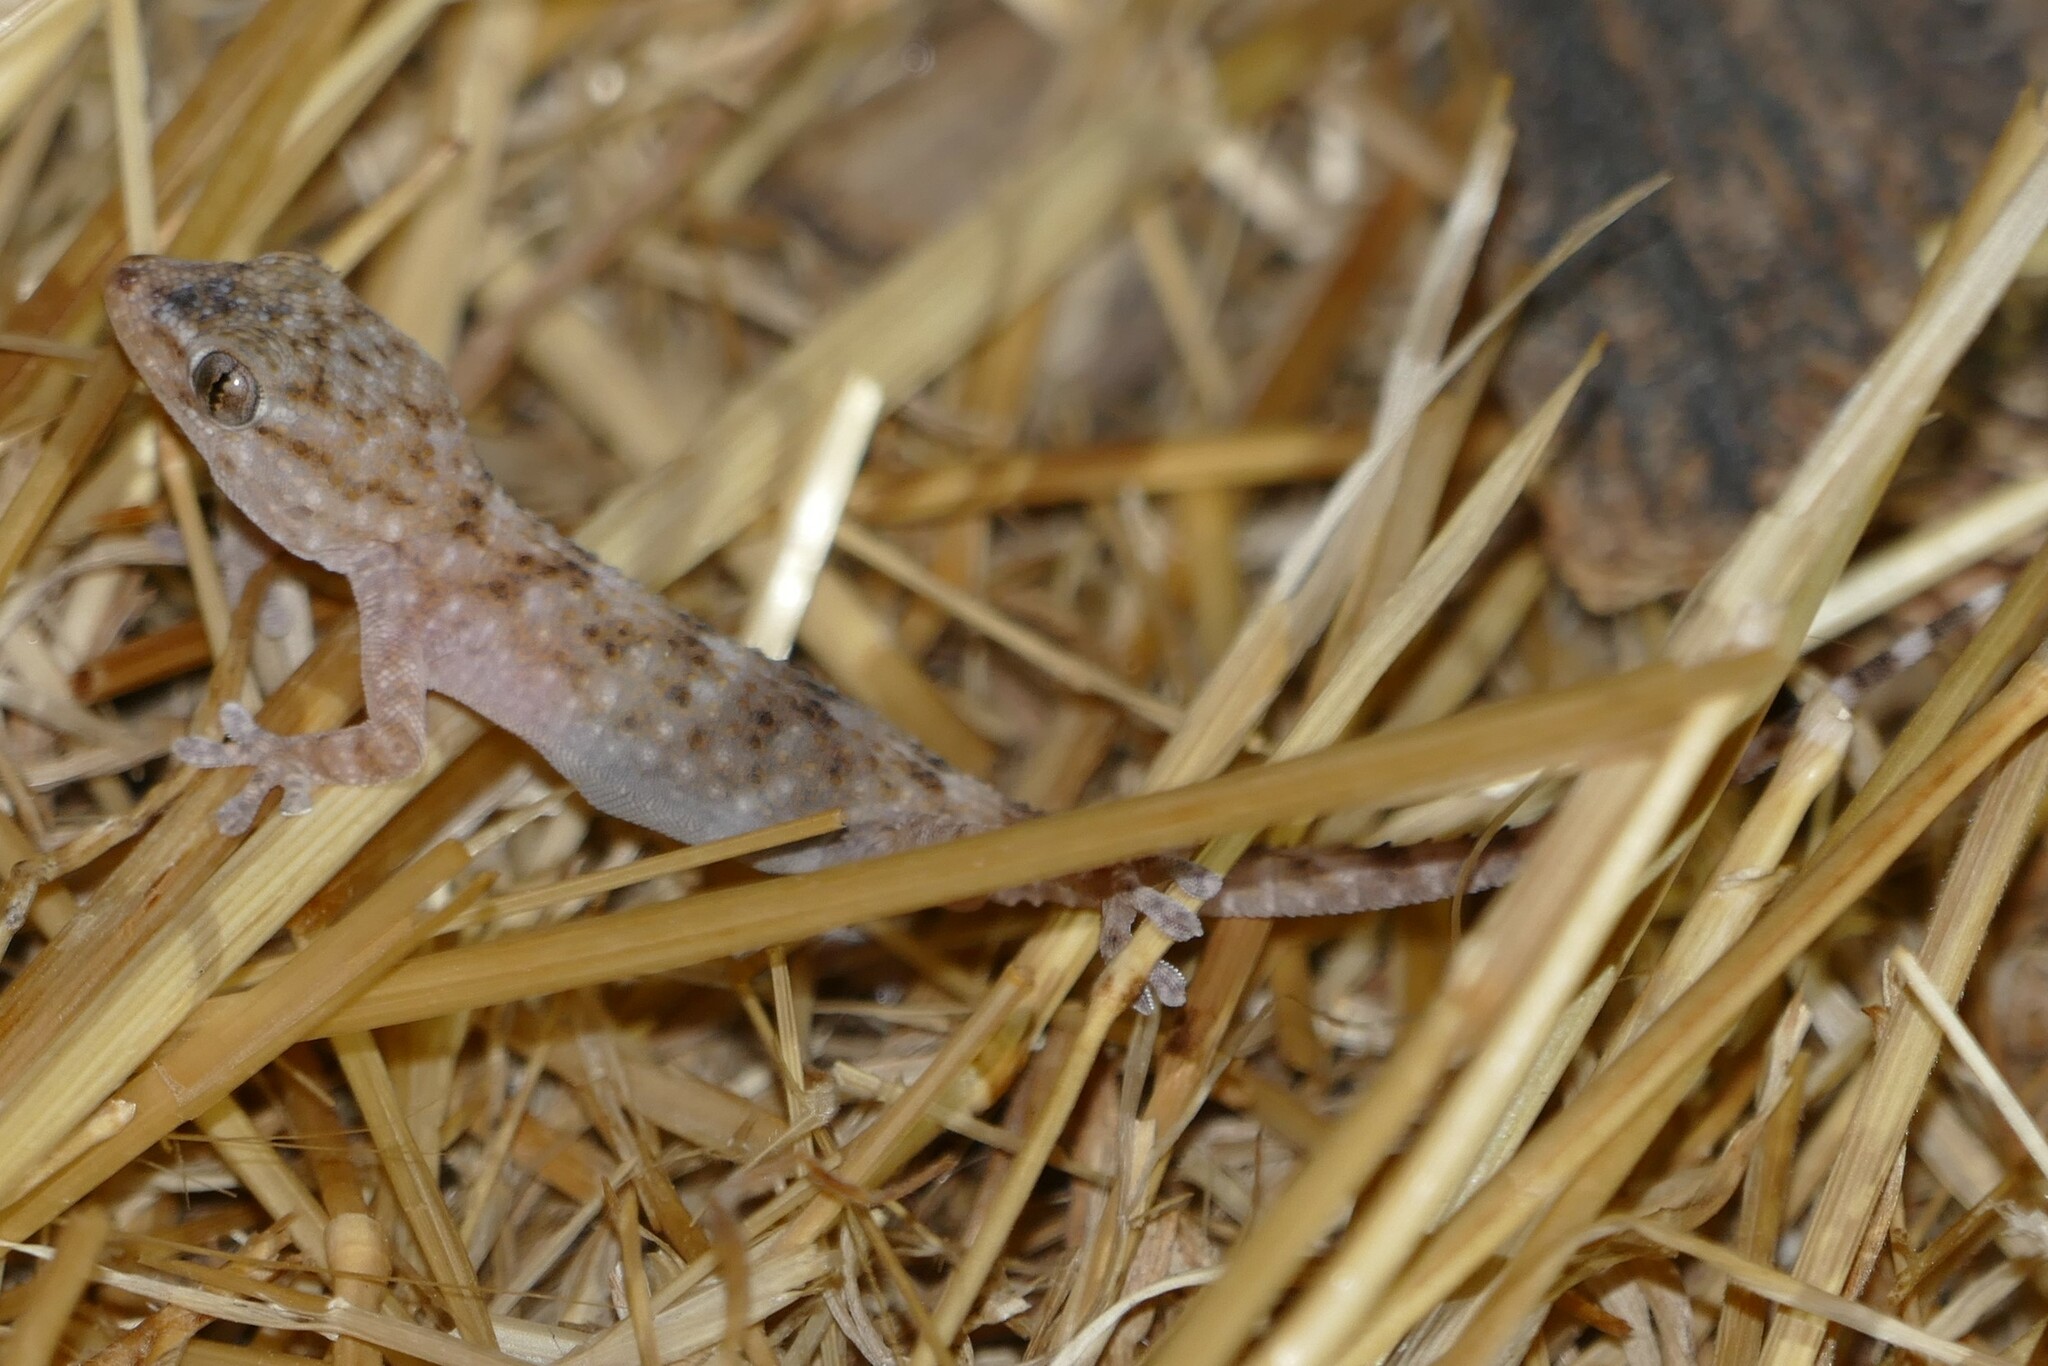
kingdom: Animalia
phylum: Chordata
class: Squamata
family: Phyllodactylidae
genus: Tarentola
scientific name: Tarentola mauritanica
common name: Moorish gecko
